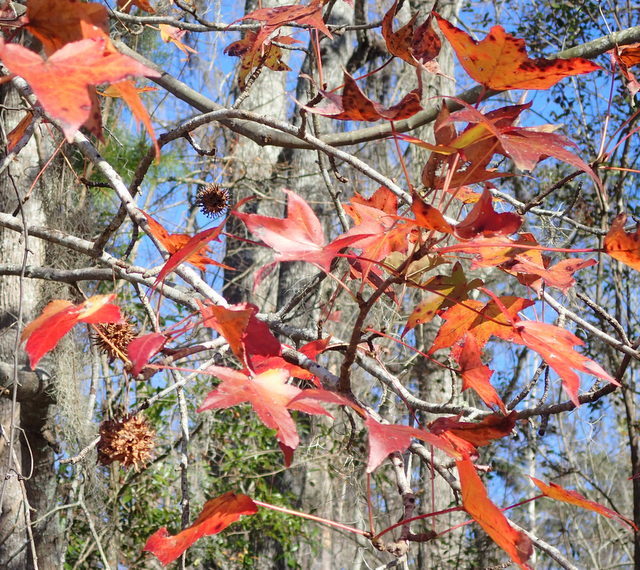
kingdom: Plantae
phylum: Tracheophyta
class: Magnoliopsida
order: Saxifragales
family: Altingiaceae
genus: Liquidambar
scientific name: Liquidambar styraciflua
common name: Sweet gum
